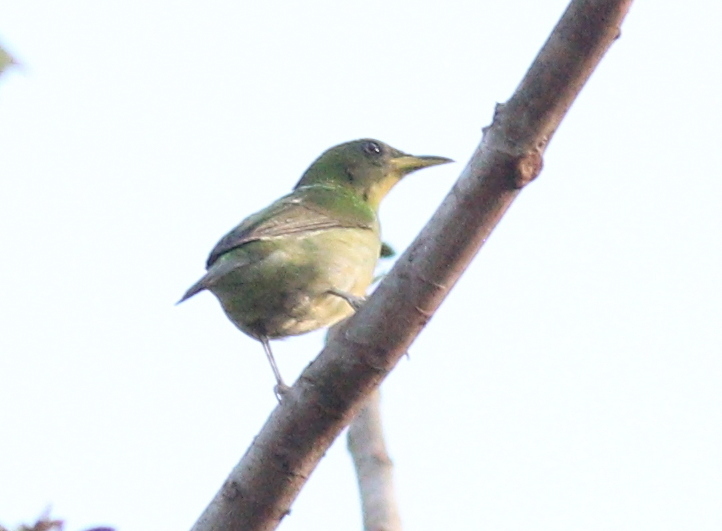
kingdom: Animalia
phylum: Chordata
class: Aves
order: Passeriformes
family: Thraupidae
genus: Chlorophanes
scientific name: Chlorophanes spiza
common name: Green honeycreeper
